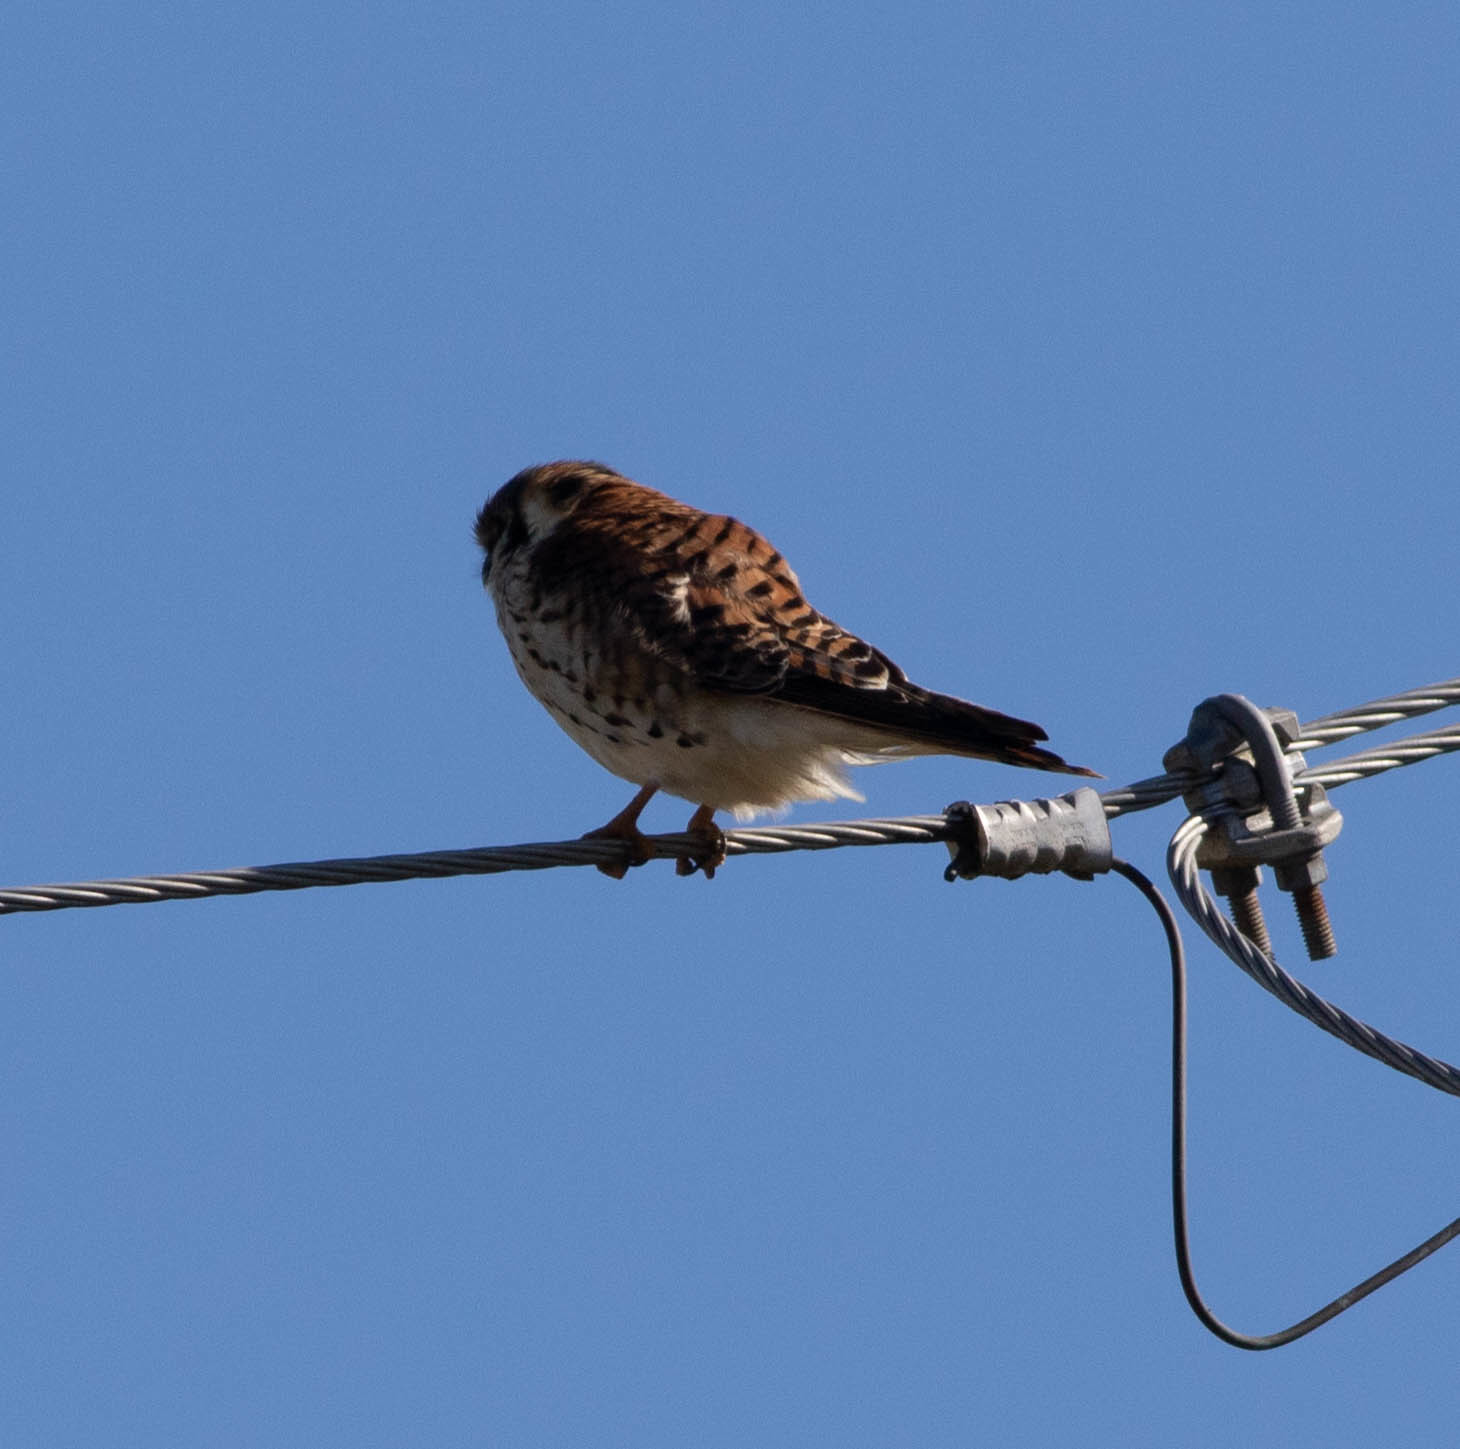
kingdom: Animalia
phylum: Chordata
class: Aves
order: Falconiformes
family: Falconidae
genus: Falco
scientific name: Falco sparverius
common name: American kestrel
